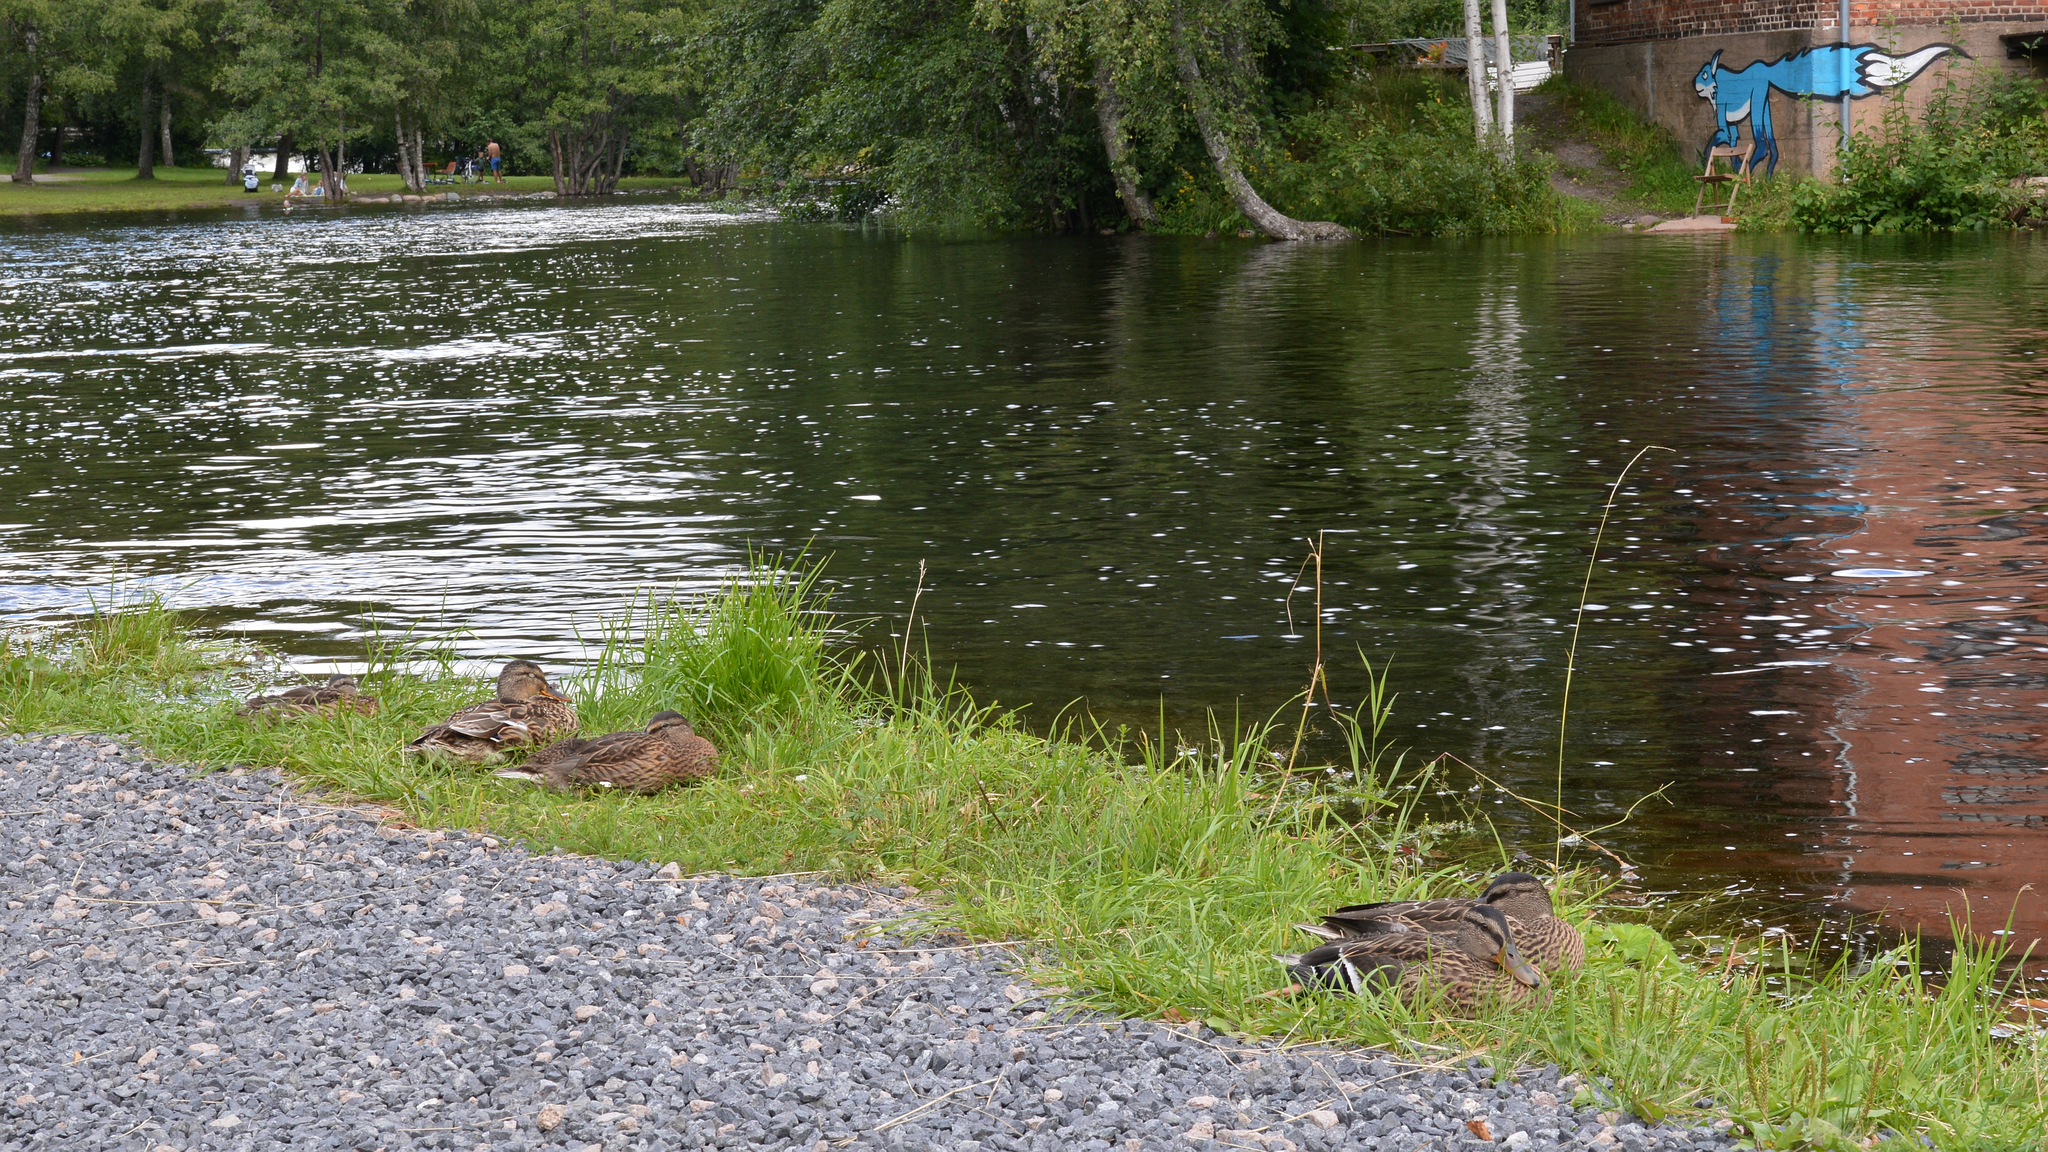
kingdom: Animalia
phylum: Chordata
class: Aves
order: Anseriformes
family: Anatidae
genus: Anas
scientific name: Anas platyrhynchos
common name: Mallard
